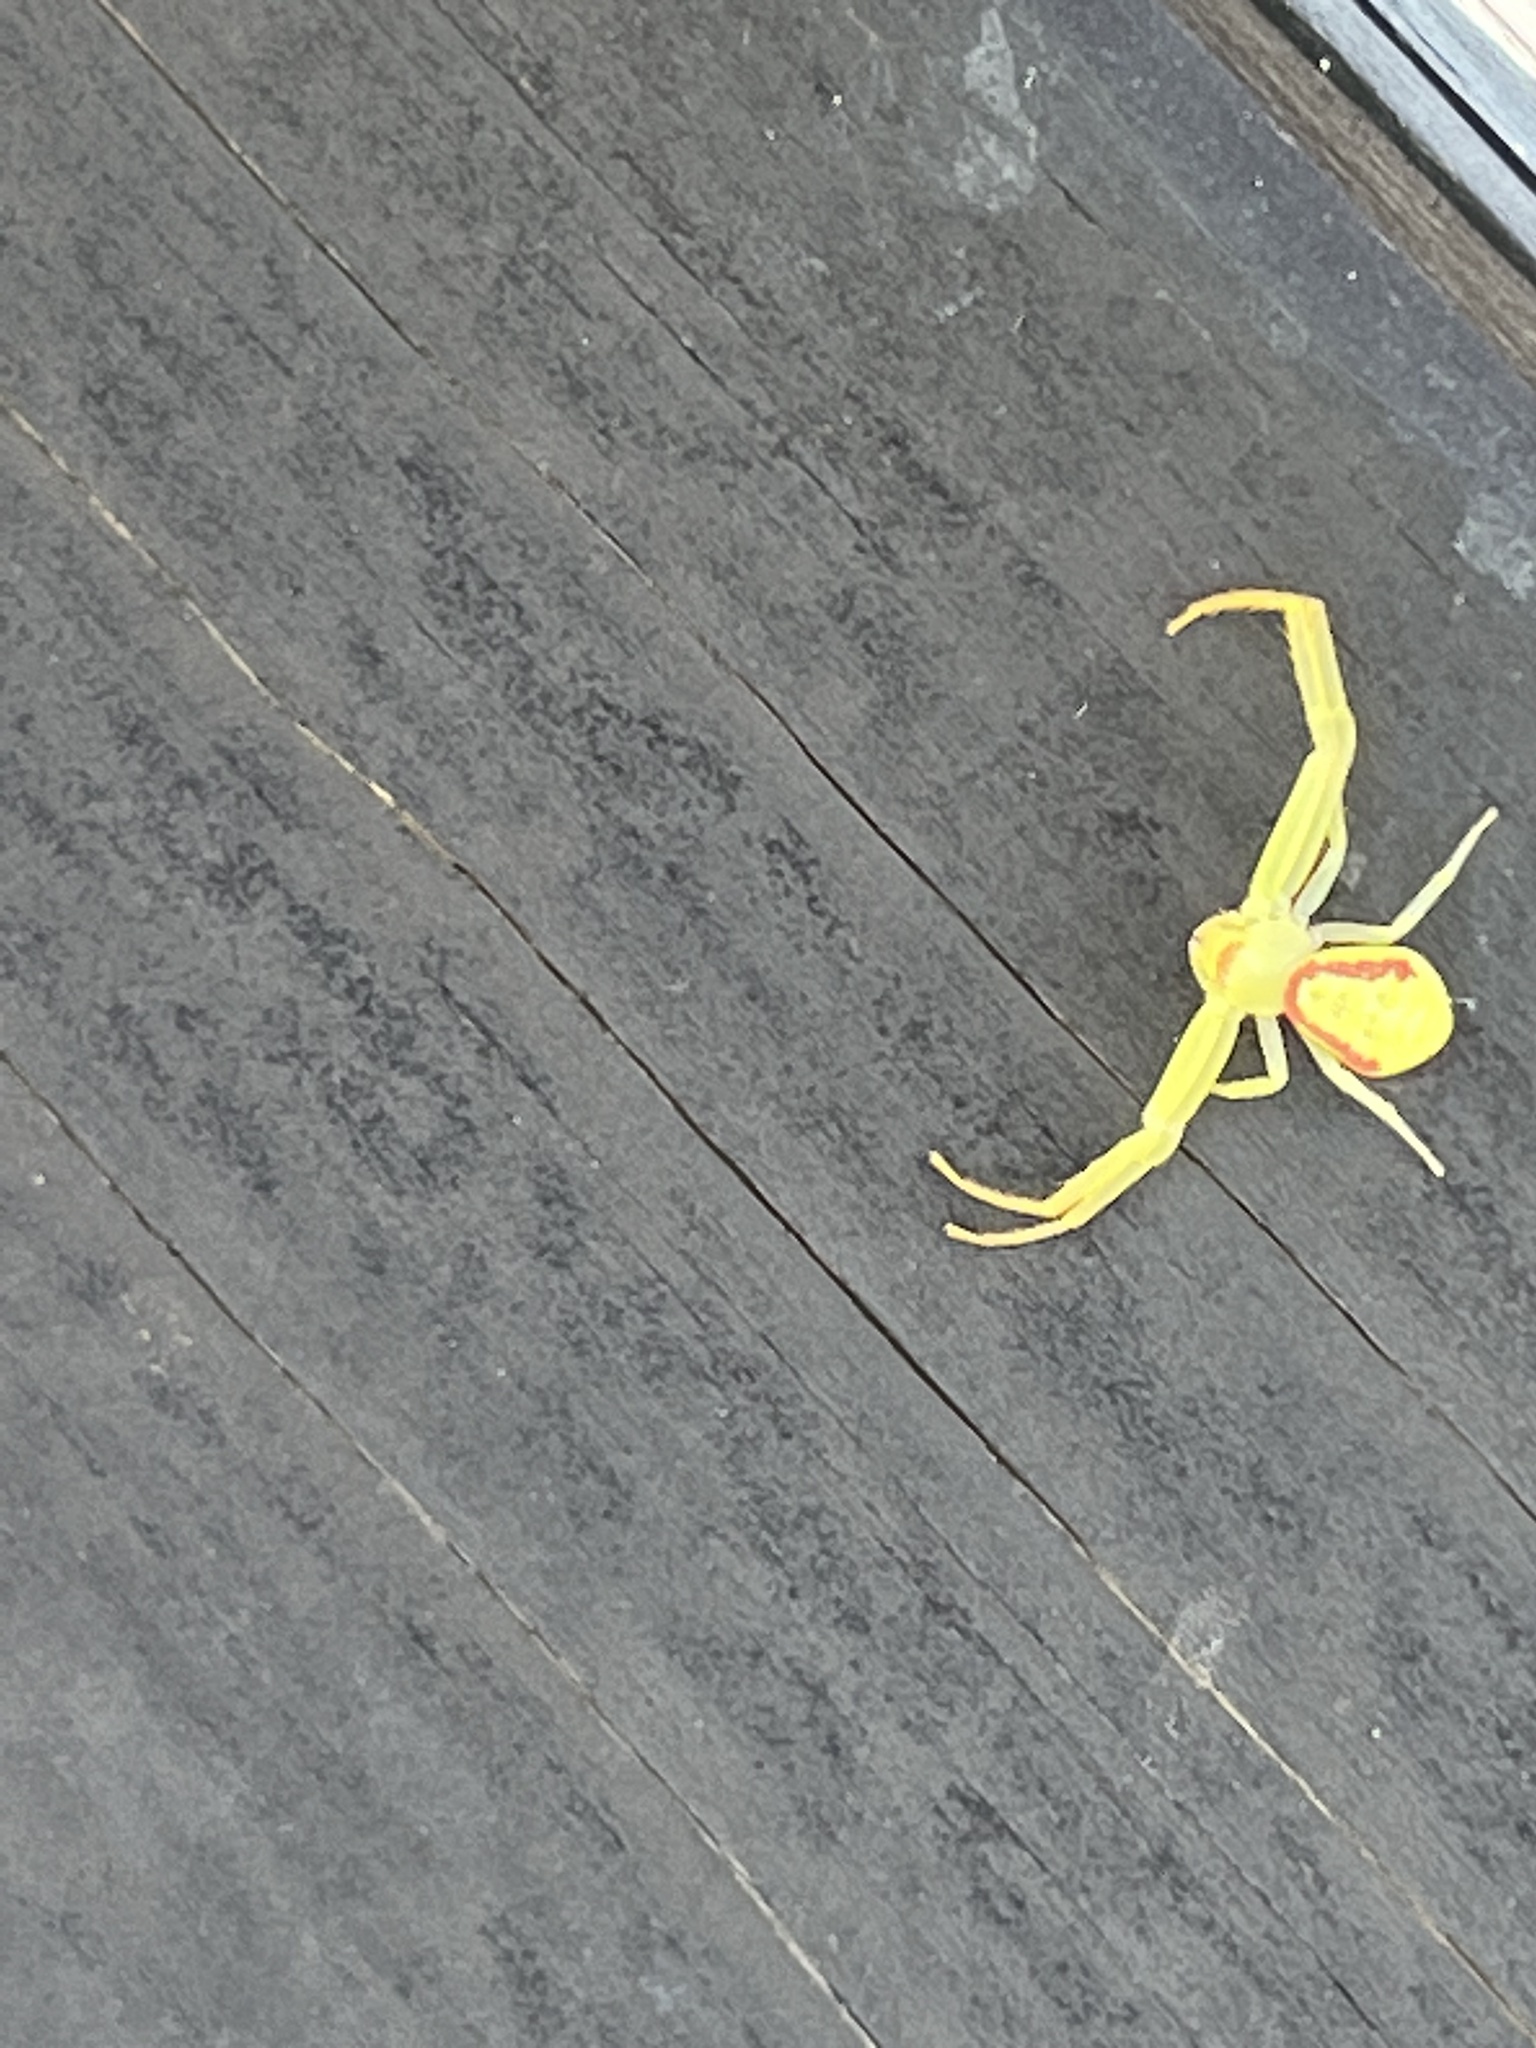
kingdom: Animalia
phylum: Arthropoda
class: Arachnida
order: Araneae
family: Thomisidae
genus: Misumessus
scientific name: Misumessus oblongus
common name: American green crab spider
